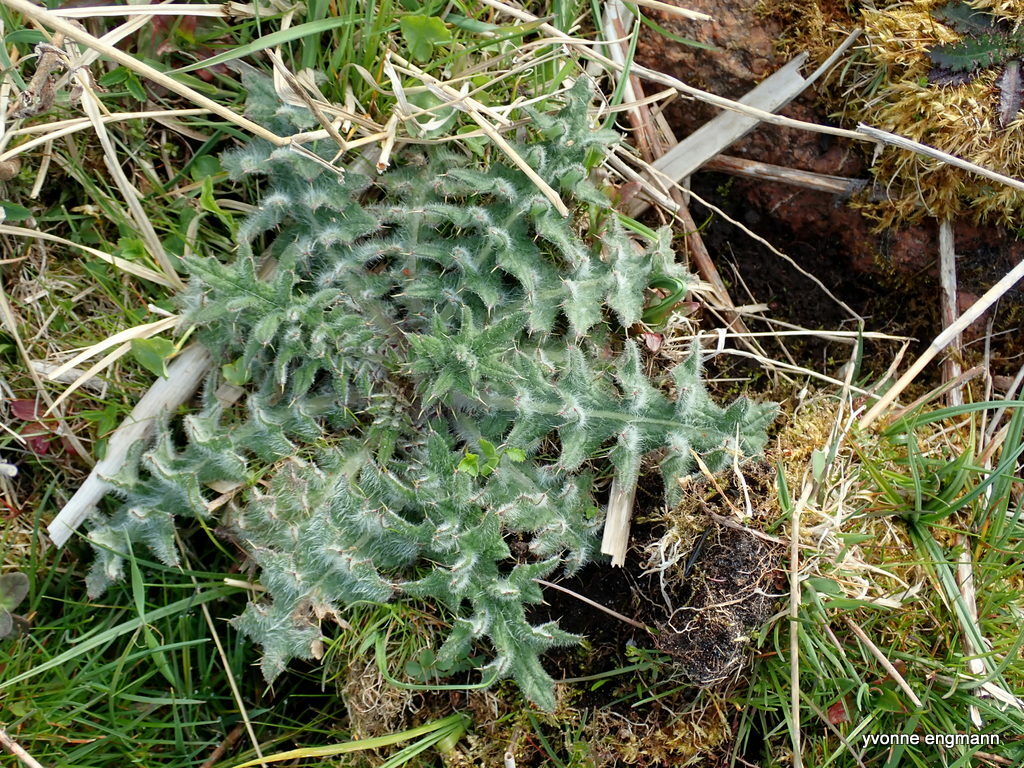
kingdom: Plantae
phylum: Tracheophyta
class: Magnoliopsida
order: Asterales
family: Asteraceae
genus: Cirsium
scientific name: Cirsium vulgare
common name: Bull thistle
